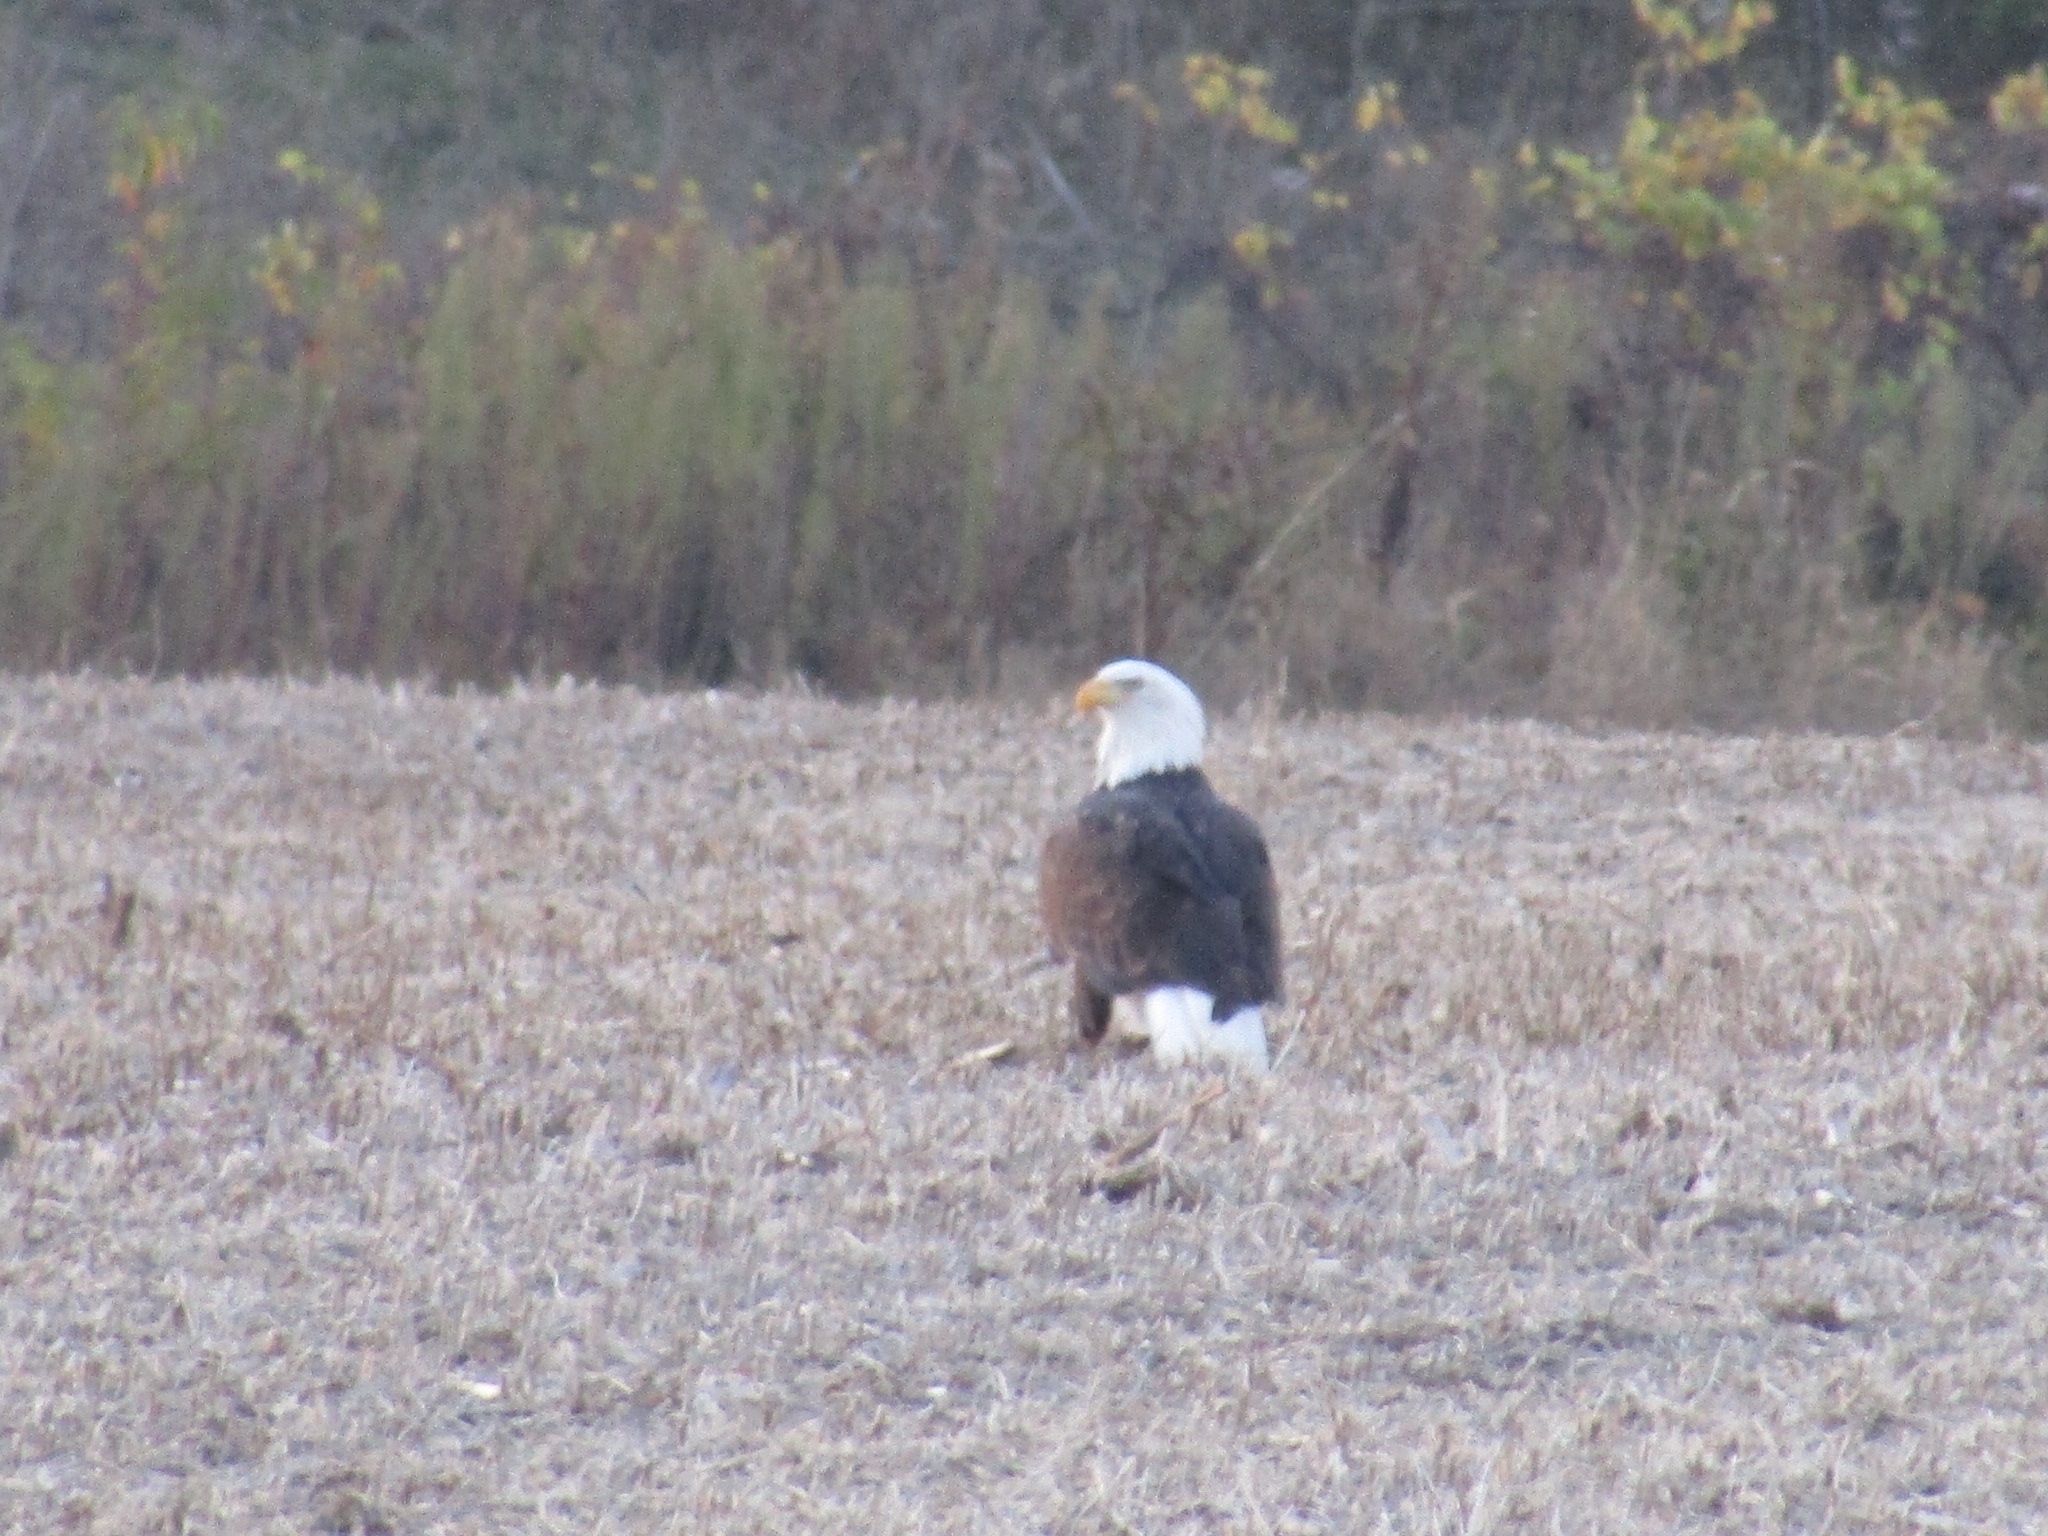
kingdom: Animalia
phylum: Chordata
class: Aves
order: Accipitriformes
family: Accipitridae
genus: Haliaeetus
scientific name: Haliaeetus leucocephalus
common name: Bald eagle
